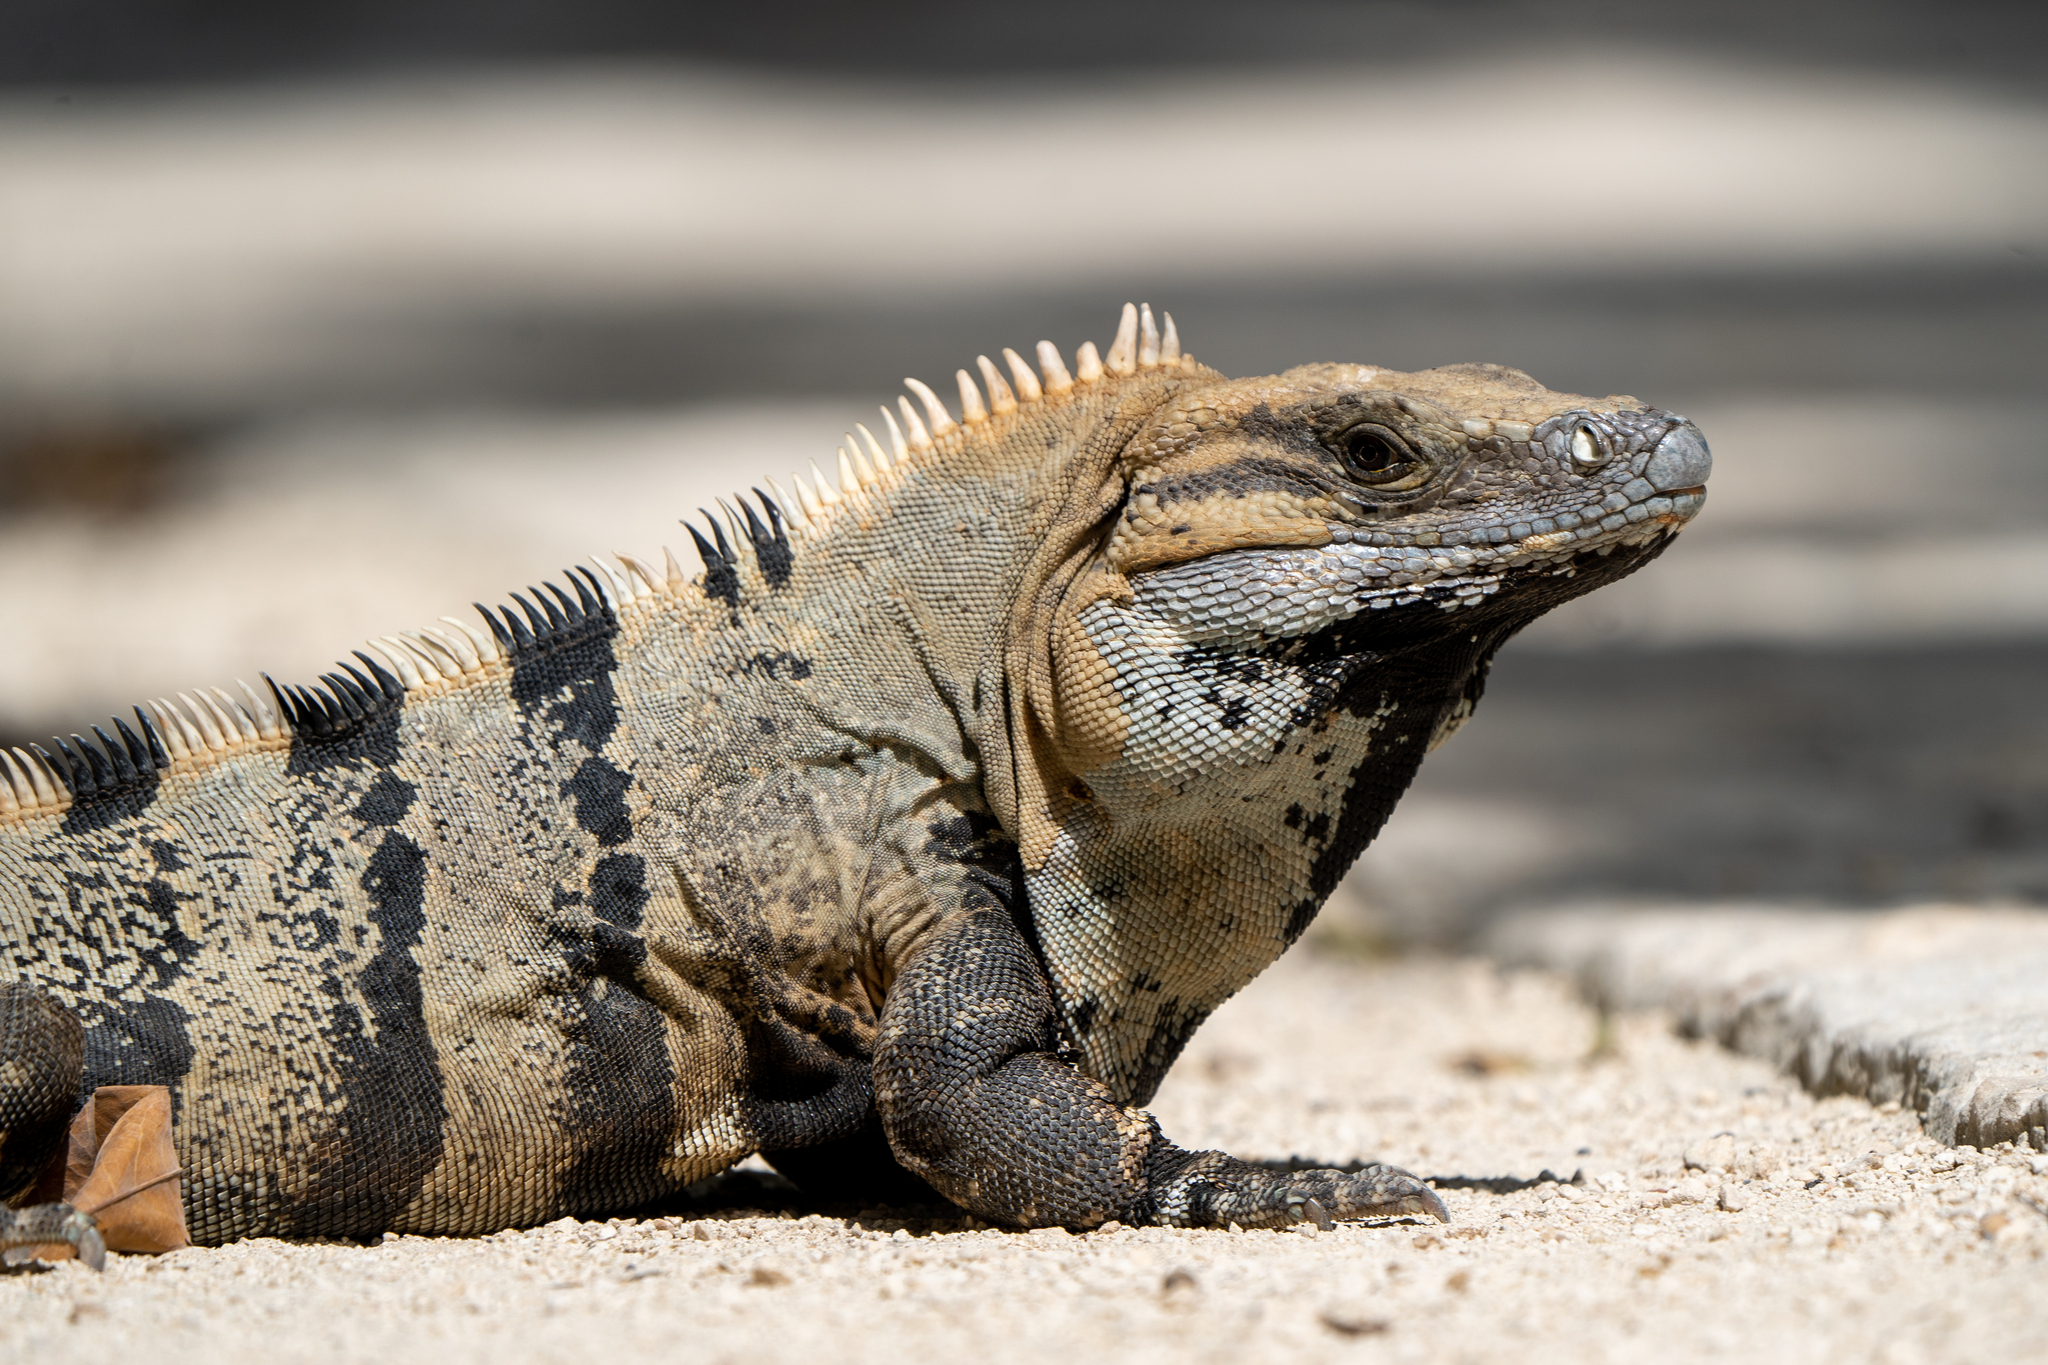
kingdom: Animalia
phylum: Chordata
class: Squamata
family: Iguanidae
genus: Ctenosaura
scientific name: Ctenosaura similis
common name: Black spiny-tailed iguana
